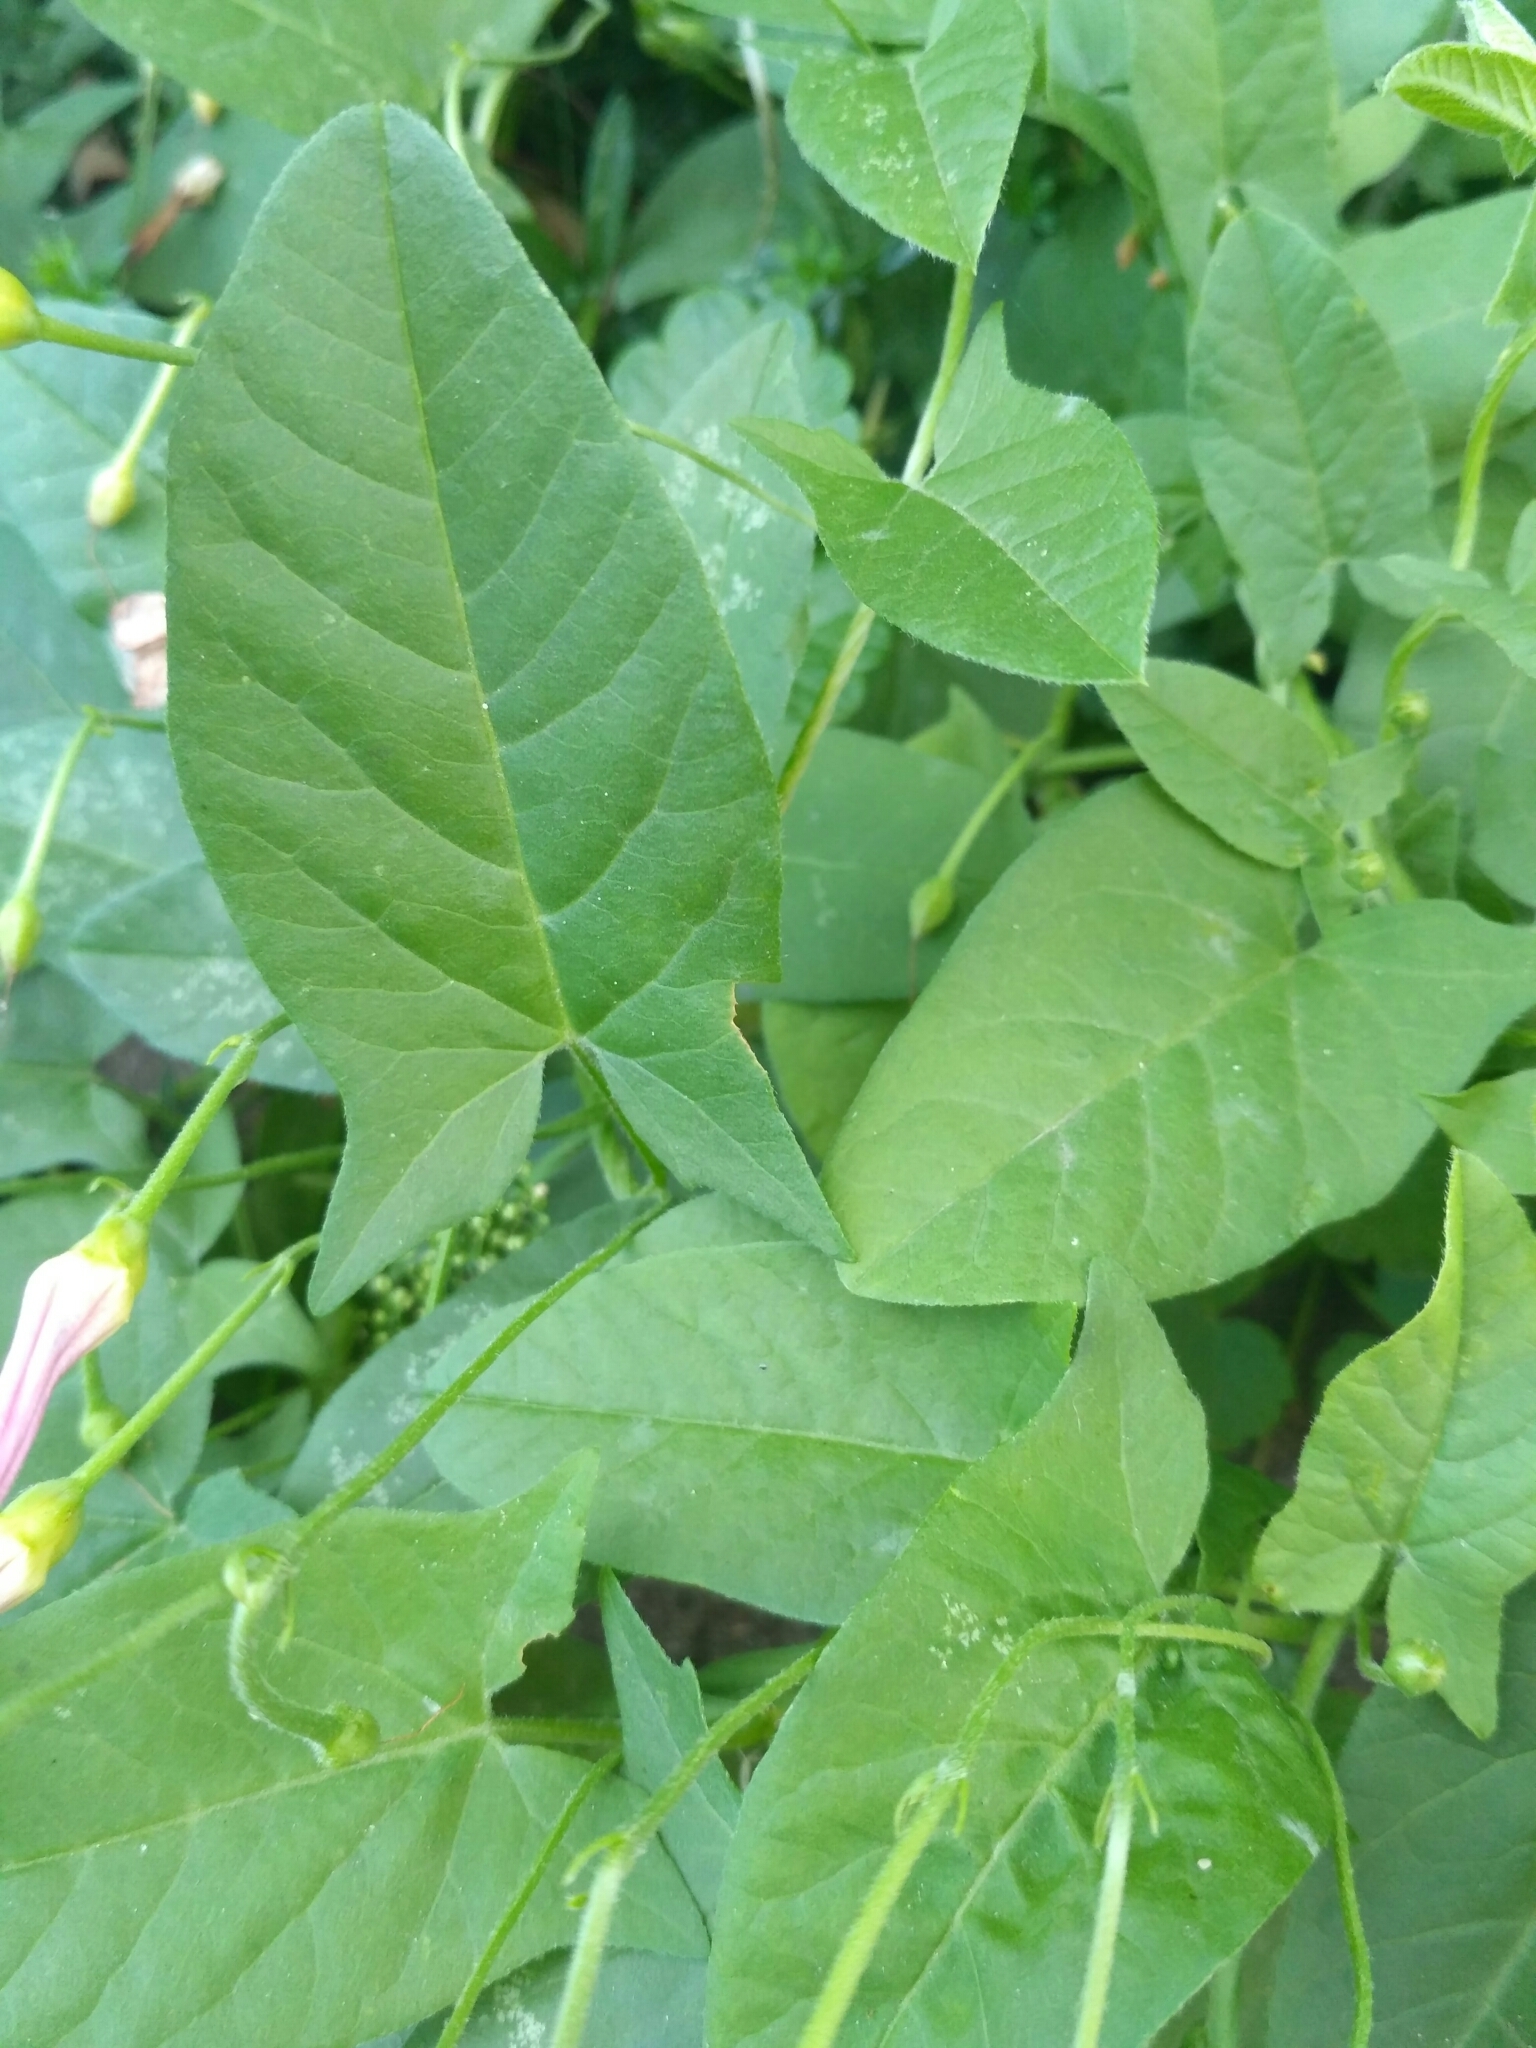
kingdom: Plantae
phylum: Tracheophyta
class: Magnoliopsida
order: Solanales
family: Convolvulaceae
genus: Convolvulus
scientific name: Convolvulus arvensis
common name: Field bindweed
